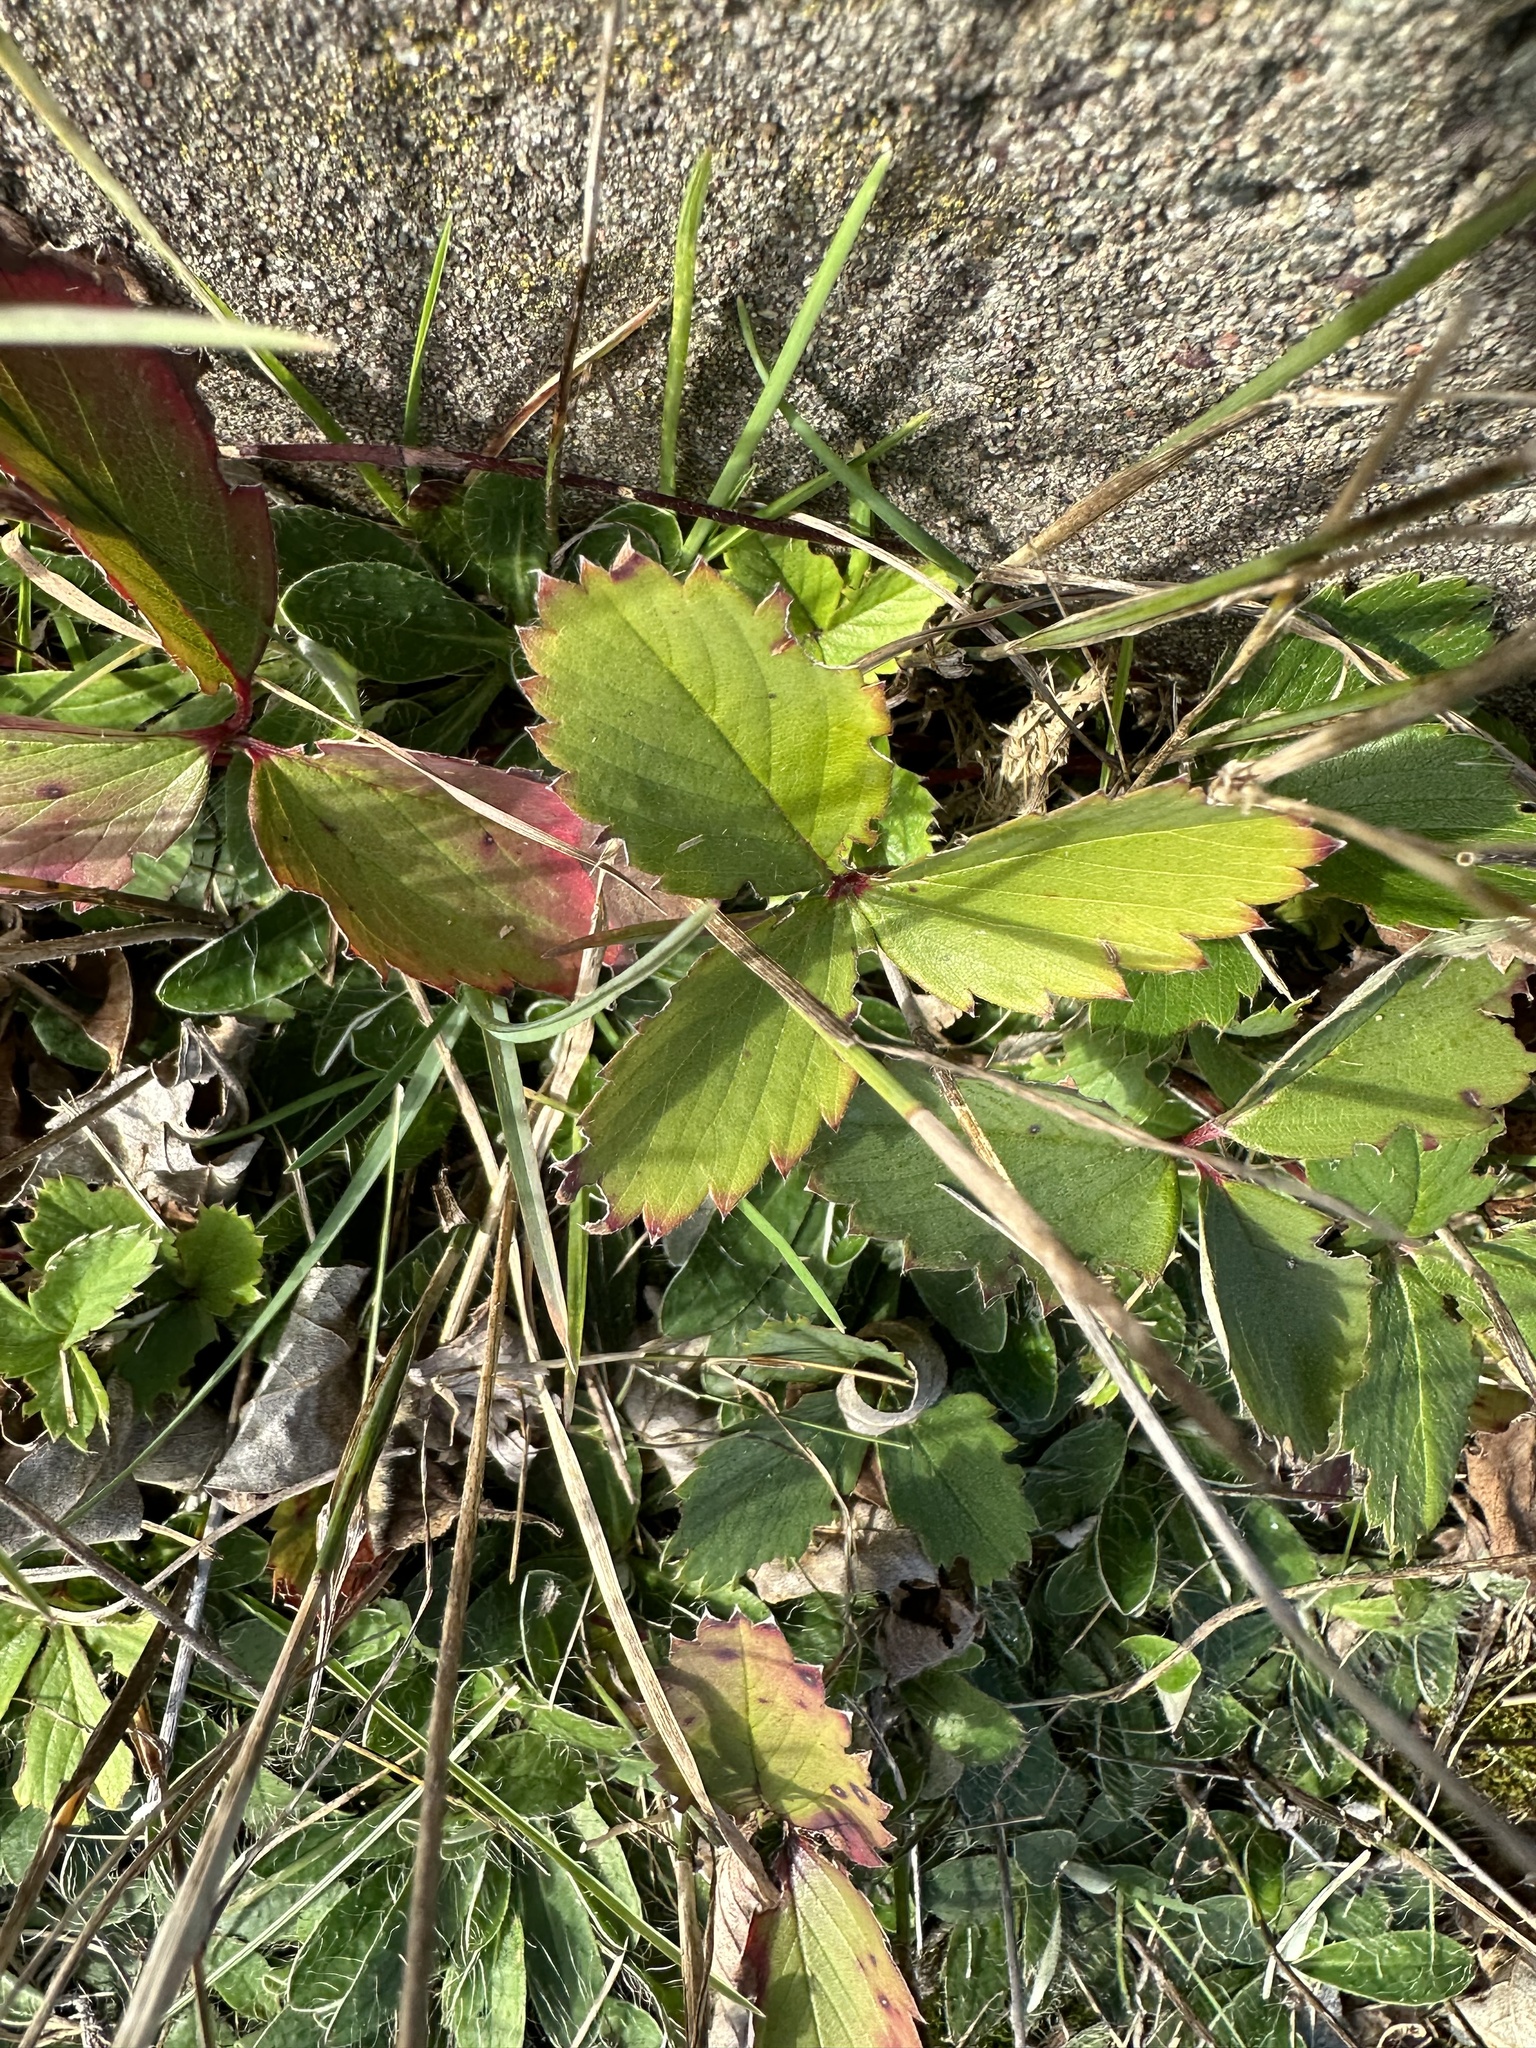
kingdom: Plantae
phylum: Tracheophyta
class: Magnoliopsida
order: Rosales
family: Rosaceae
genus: Fragaria
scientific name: Fragaria virginiana
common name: Thickleaved wild strawberry
